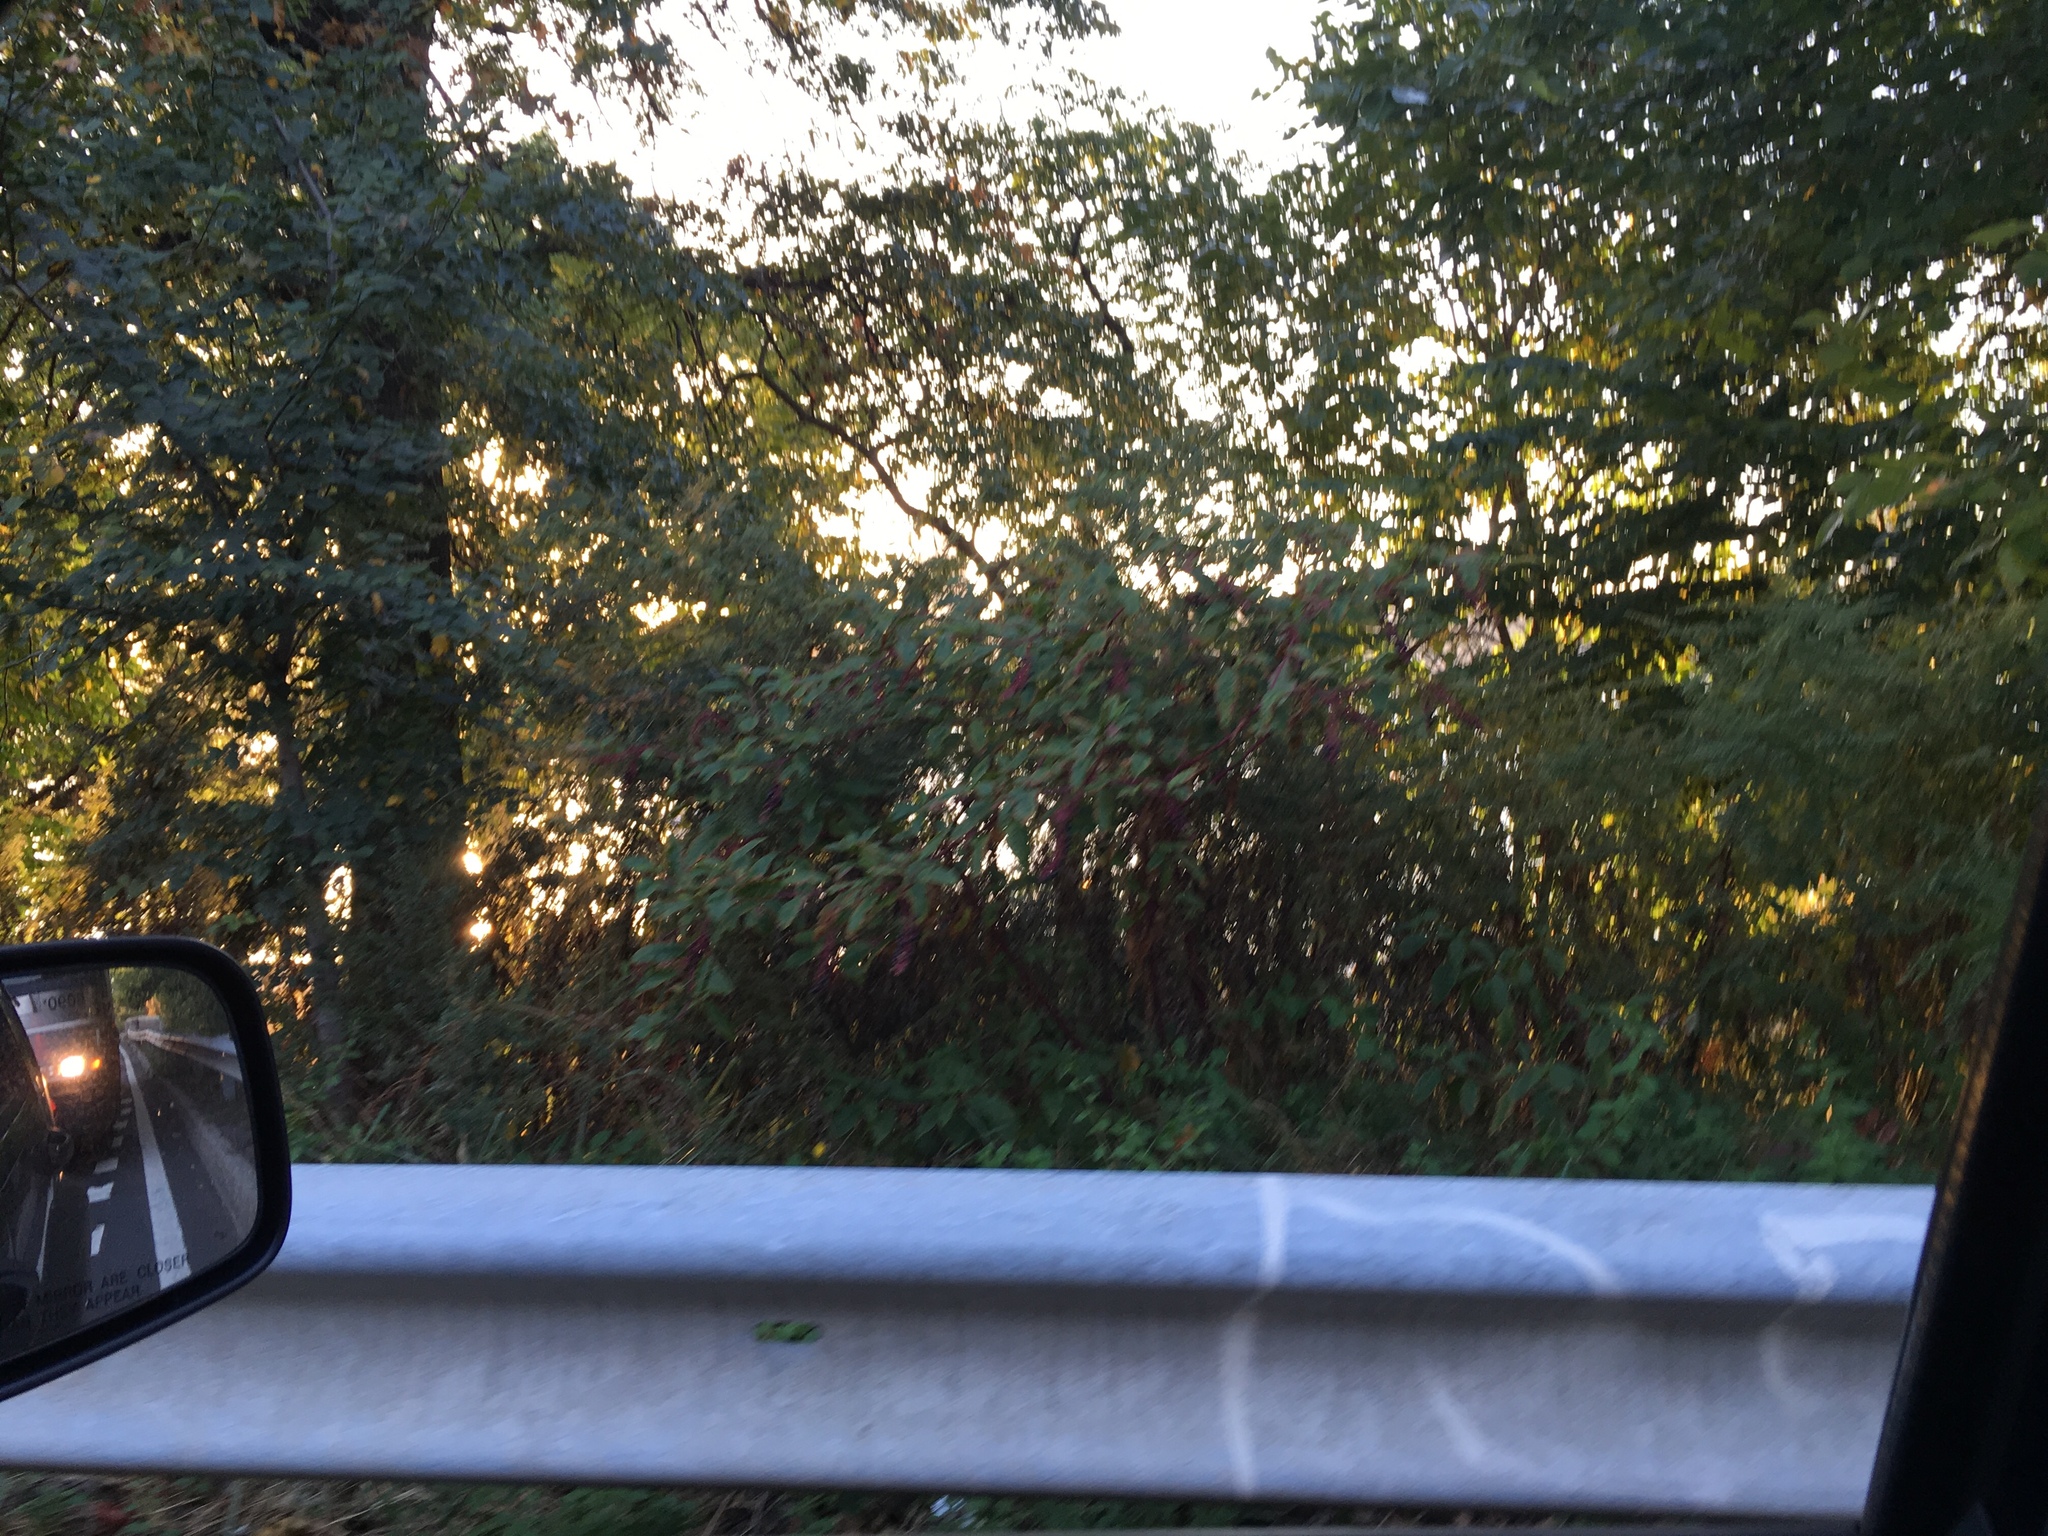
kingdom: Plantae
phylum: Tracheophyta
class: Magnoliopsida
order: Caryophyllales
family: Phytolaccaceae
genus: Phytolacca
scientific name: Phytolacca americana
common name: American pokeweed
